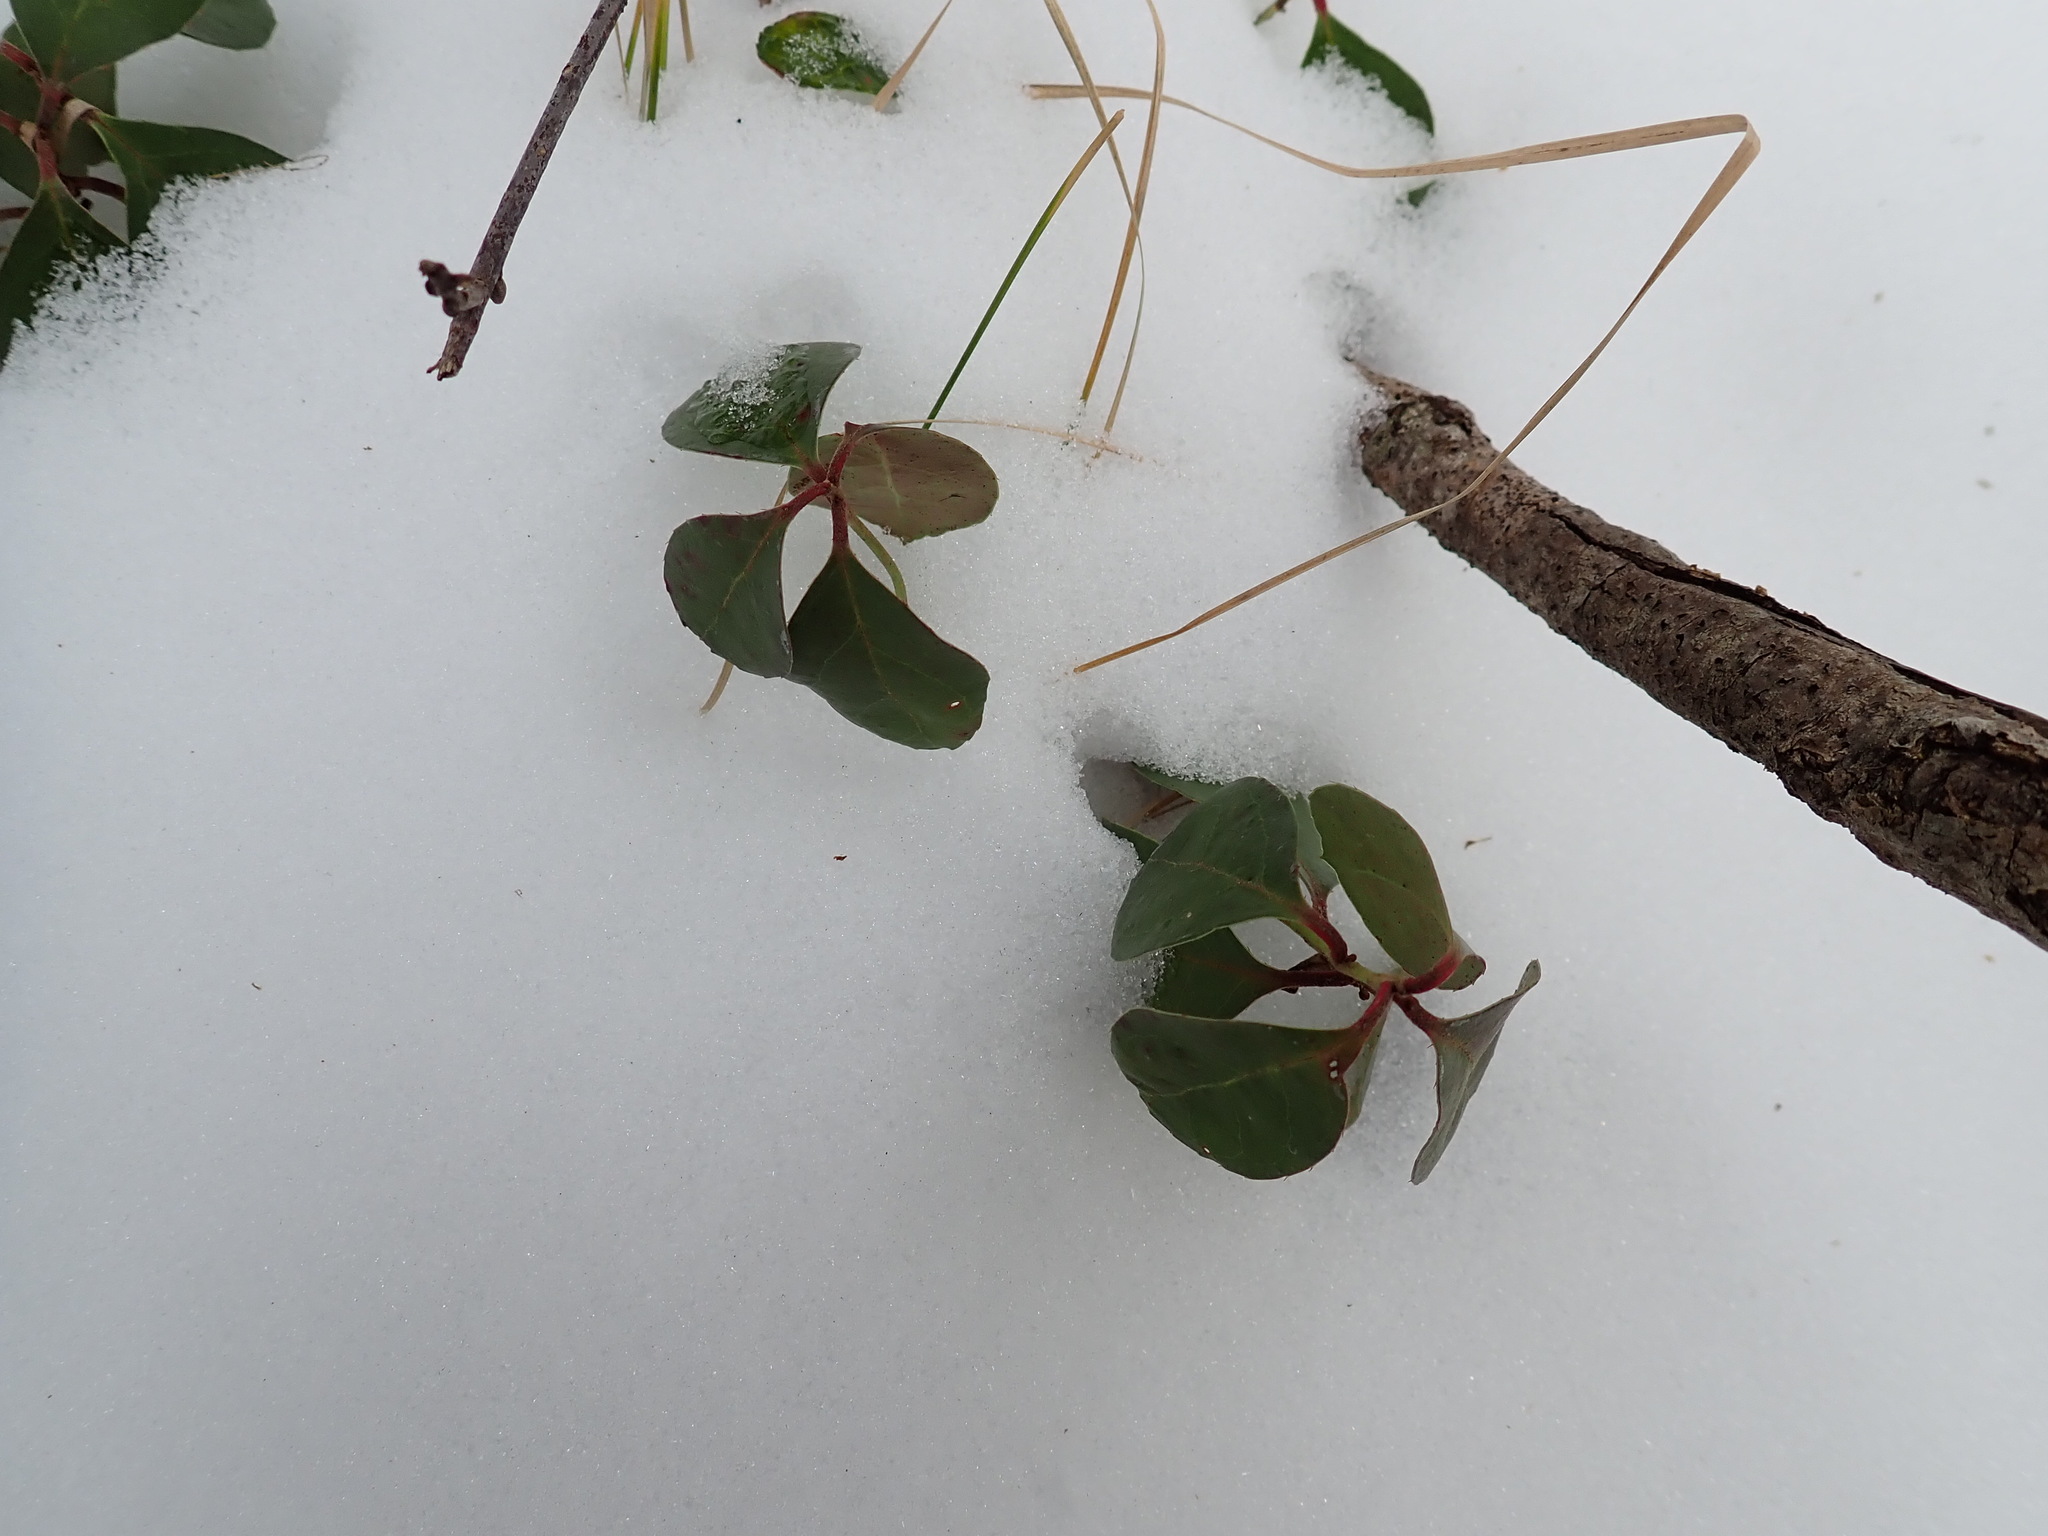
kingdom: Plantae
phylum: Tracheophyta
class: Magnoliopsida
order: Ericales
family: Ericaceae
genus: Gaultheria
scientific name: Gaultheria procumbens
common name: Checkerberry
